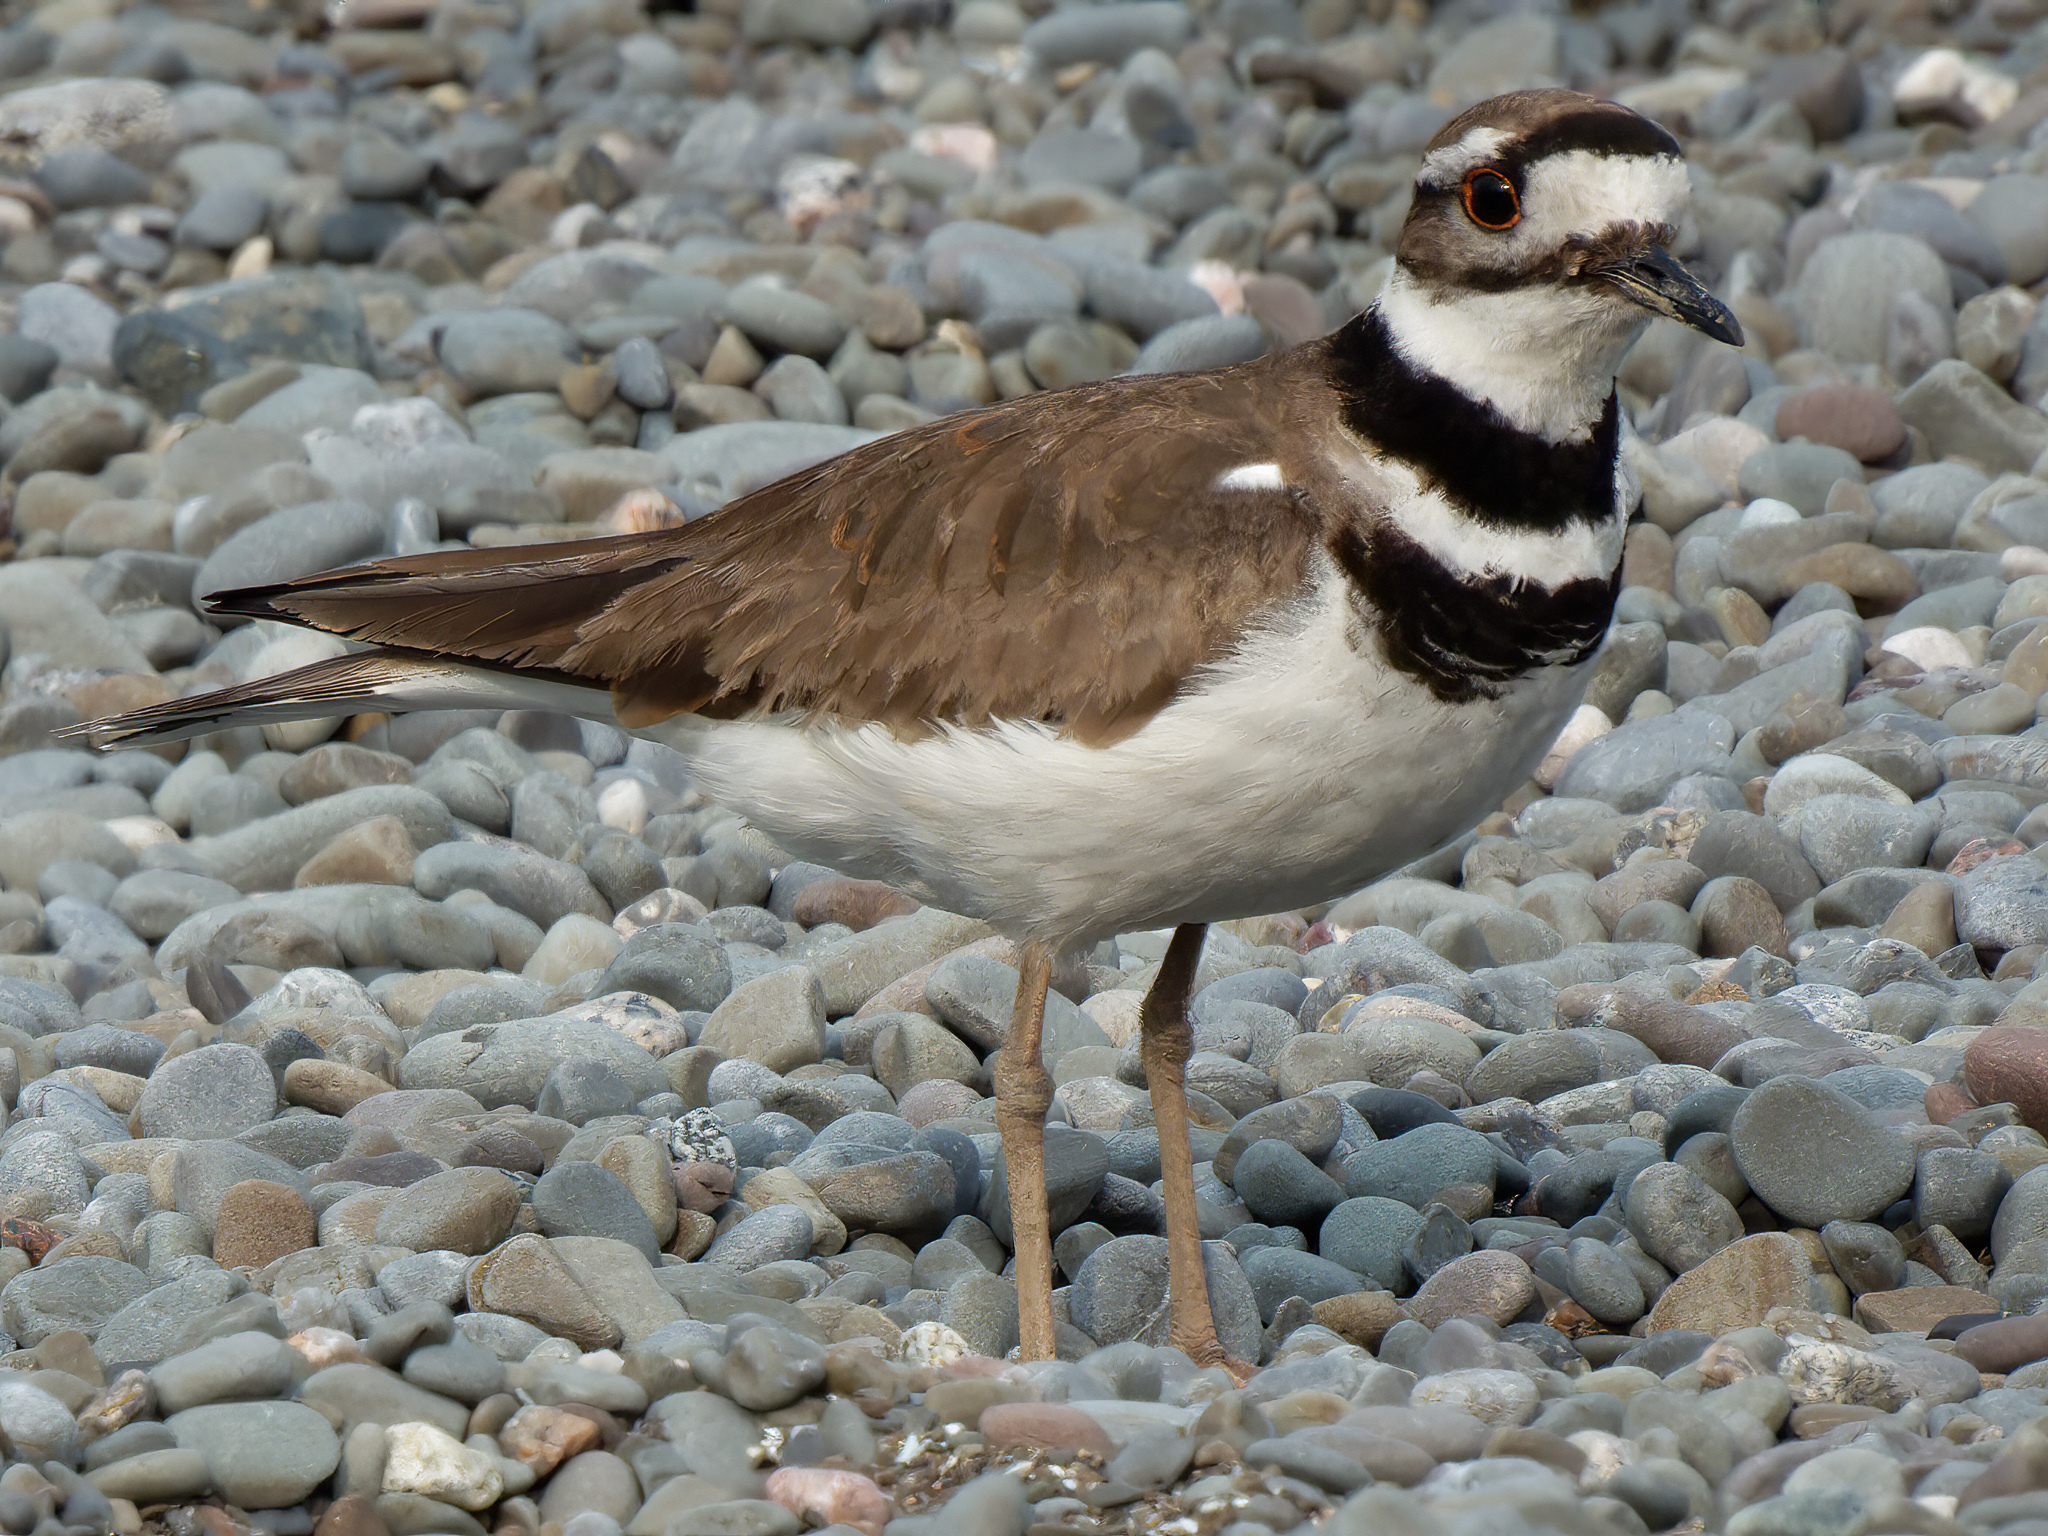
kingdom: Animalia
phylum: Chordata
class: Aves
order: Charadriiformes
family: Charadriidae
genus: Charadrius
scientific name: Charadrius vociferus
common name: Killdeer
